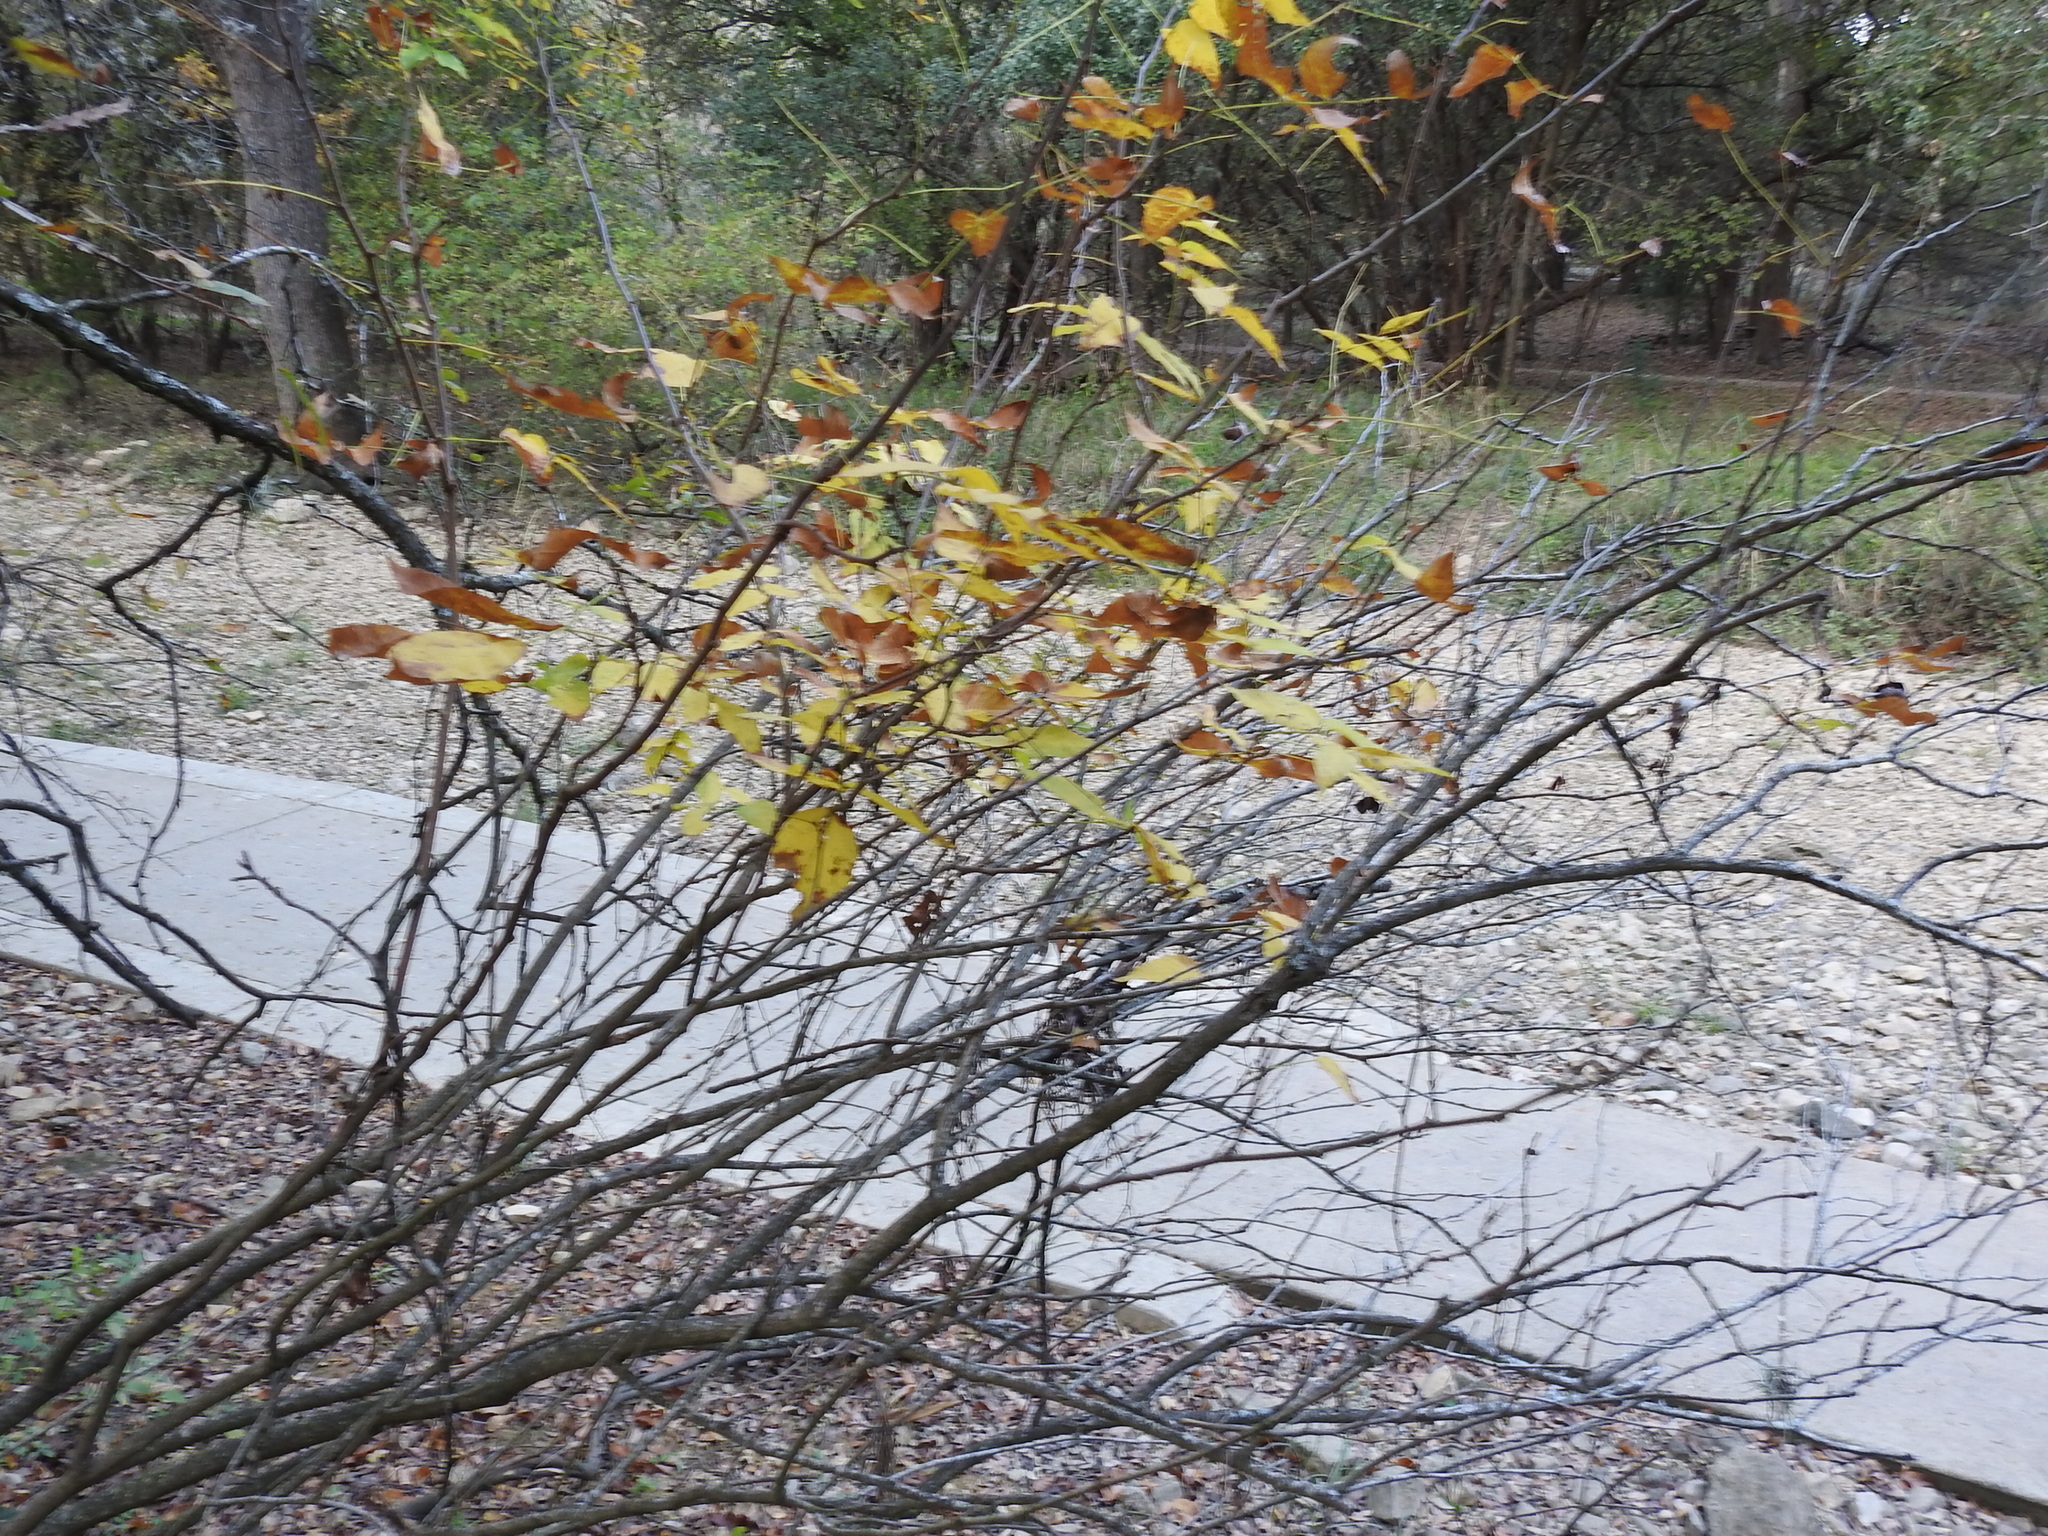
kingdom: Plantae
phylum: Tracheophyta
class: Magnoliopsida
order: Sapindales
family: Sapindaceae
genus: Ungnadia
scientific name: Ungnadia speciosa
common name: Texas-buckeye
